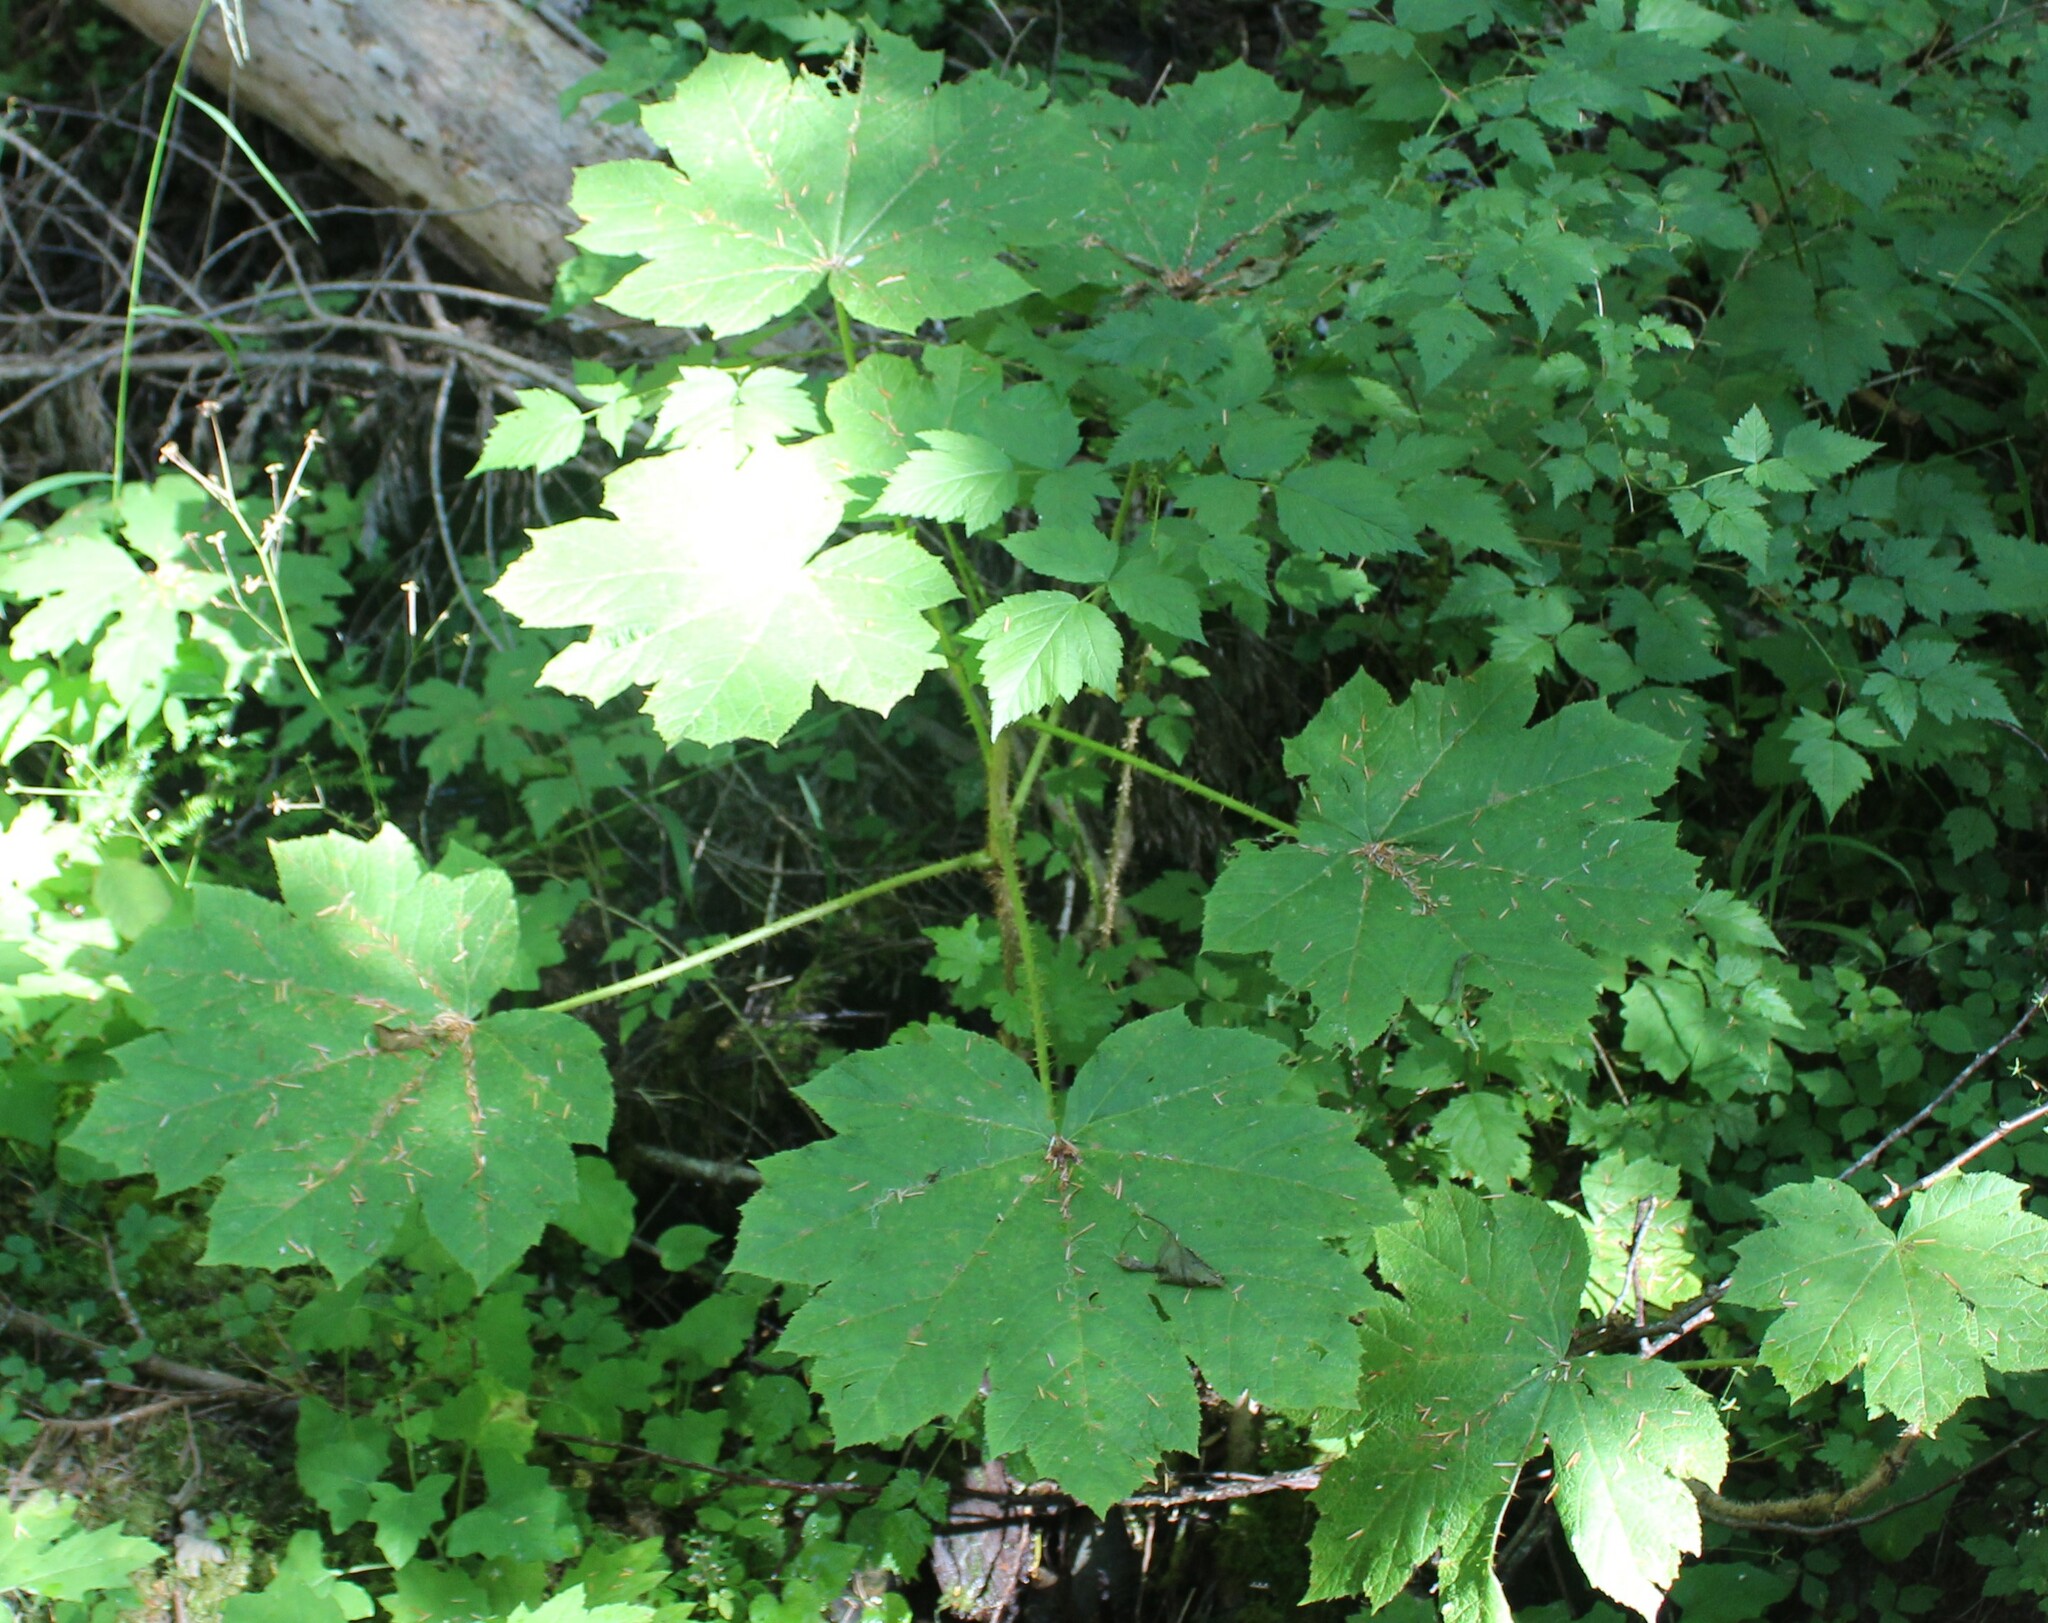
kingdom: Plantae
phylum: Tracheophyta
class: Magnoliopsida
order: Apiales
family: Araliaceae
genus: Oplopanax
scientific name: Oplopanax horridus
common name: Devil's walking-stick
